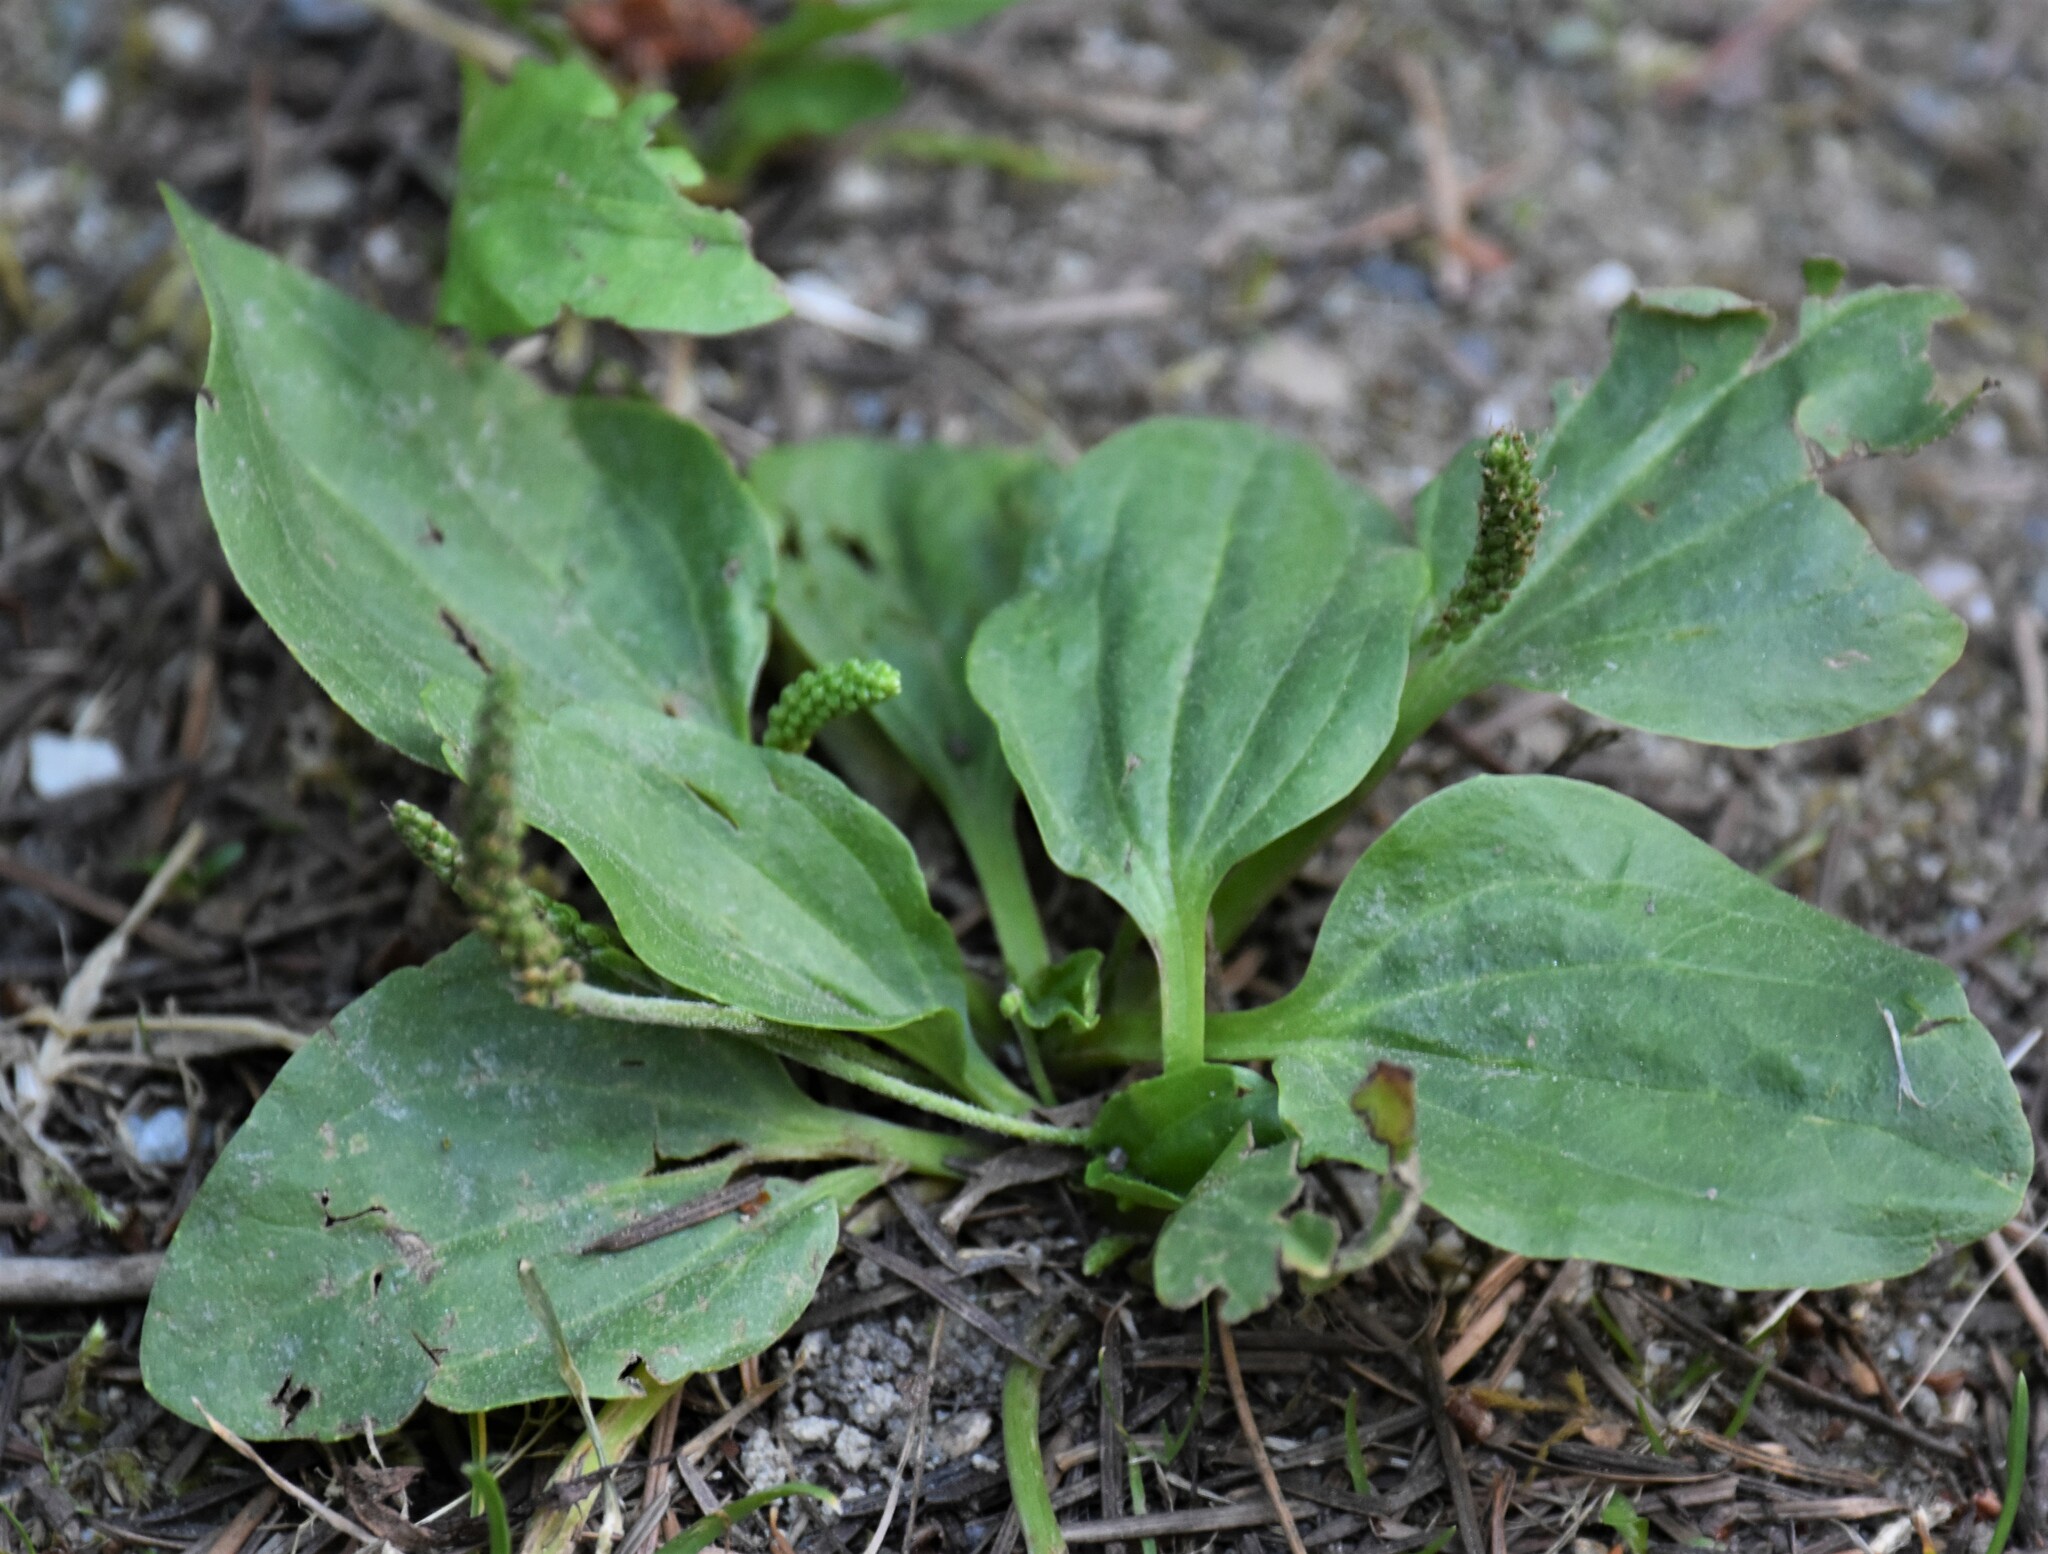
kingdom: Plantae
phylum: Tracheophyta
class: Magnoliopsida
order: Lamiales
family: Plantaginaceae
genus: Plantago
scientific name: Plantago major
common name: Common plantain
